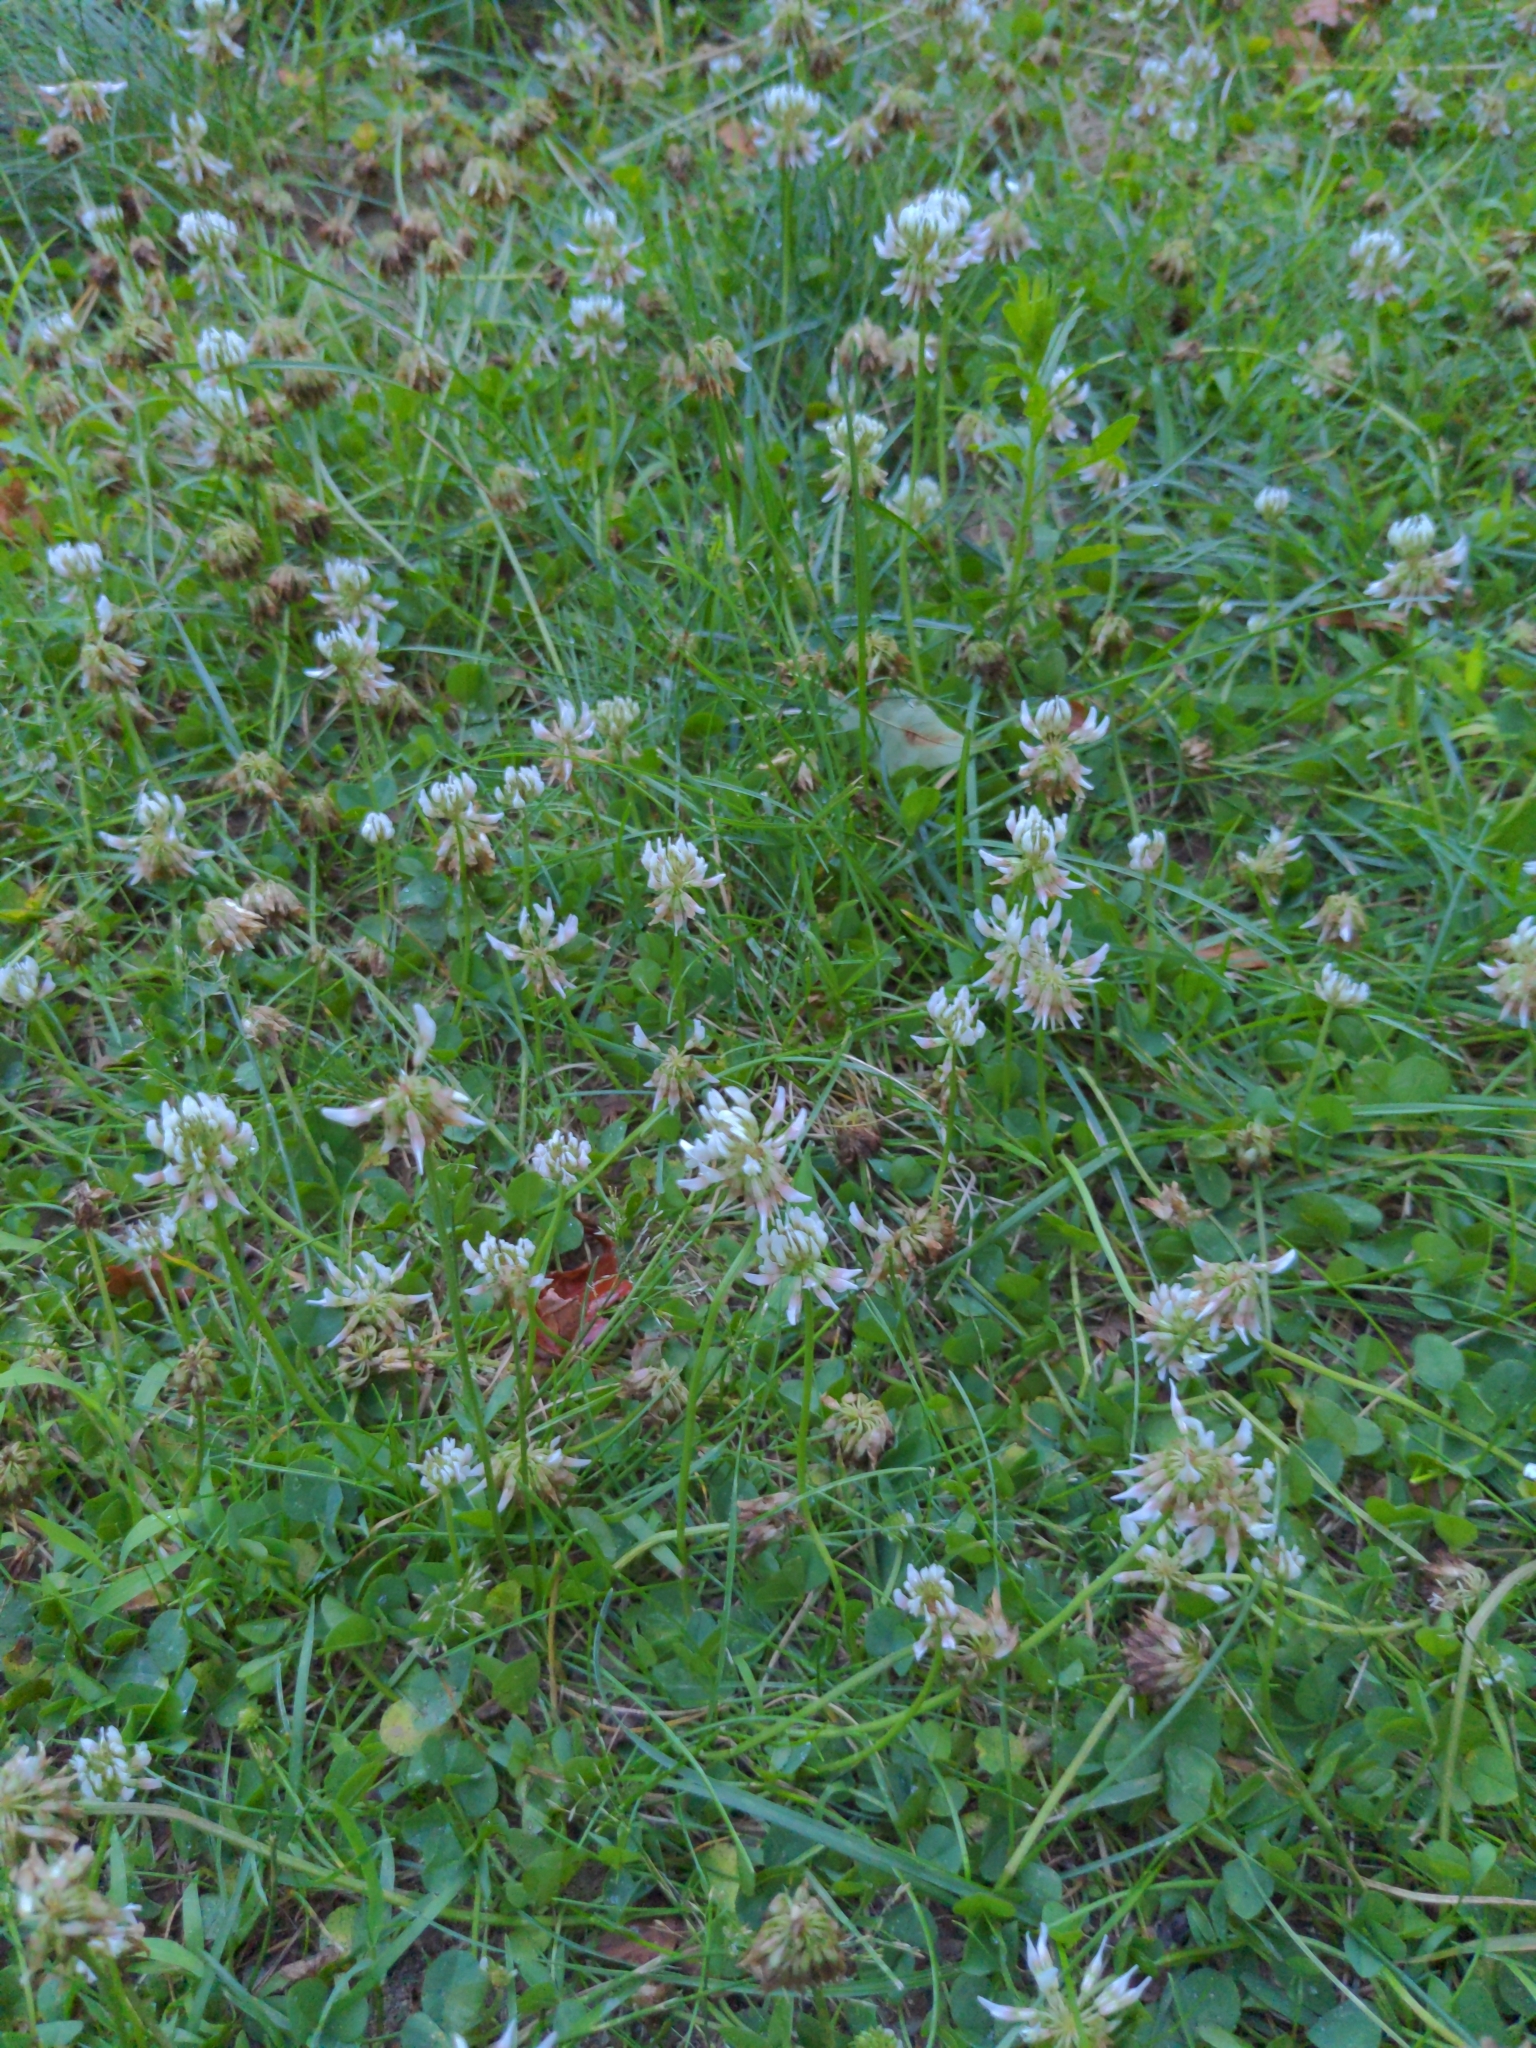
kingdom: Plantae
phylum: Tracheophyta
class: Magnoliopsida
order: Fabales
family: Fabaceae
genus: Trifolium
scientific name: Trifolium repens
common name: White clover
